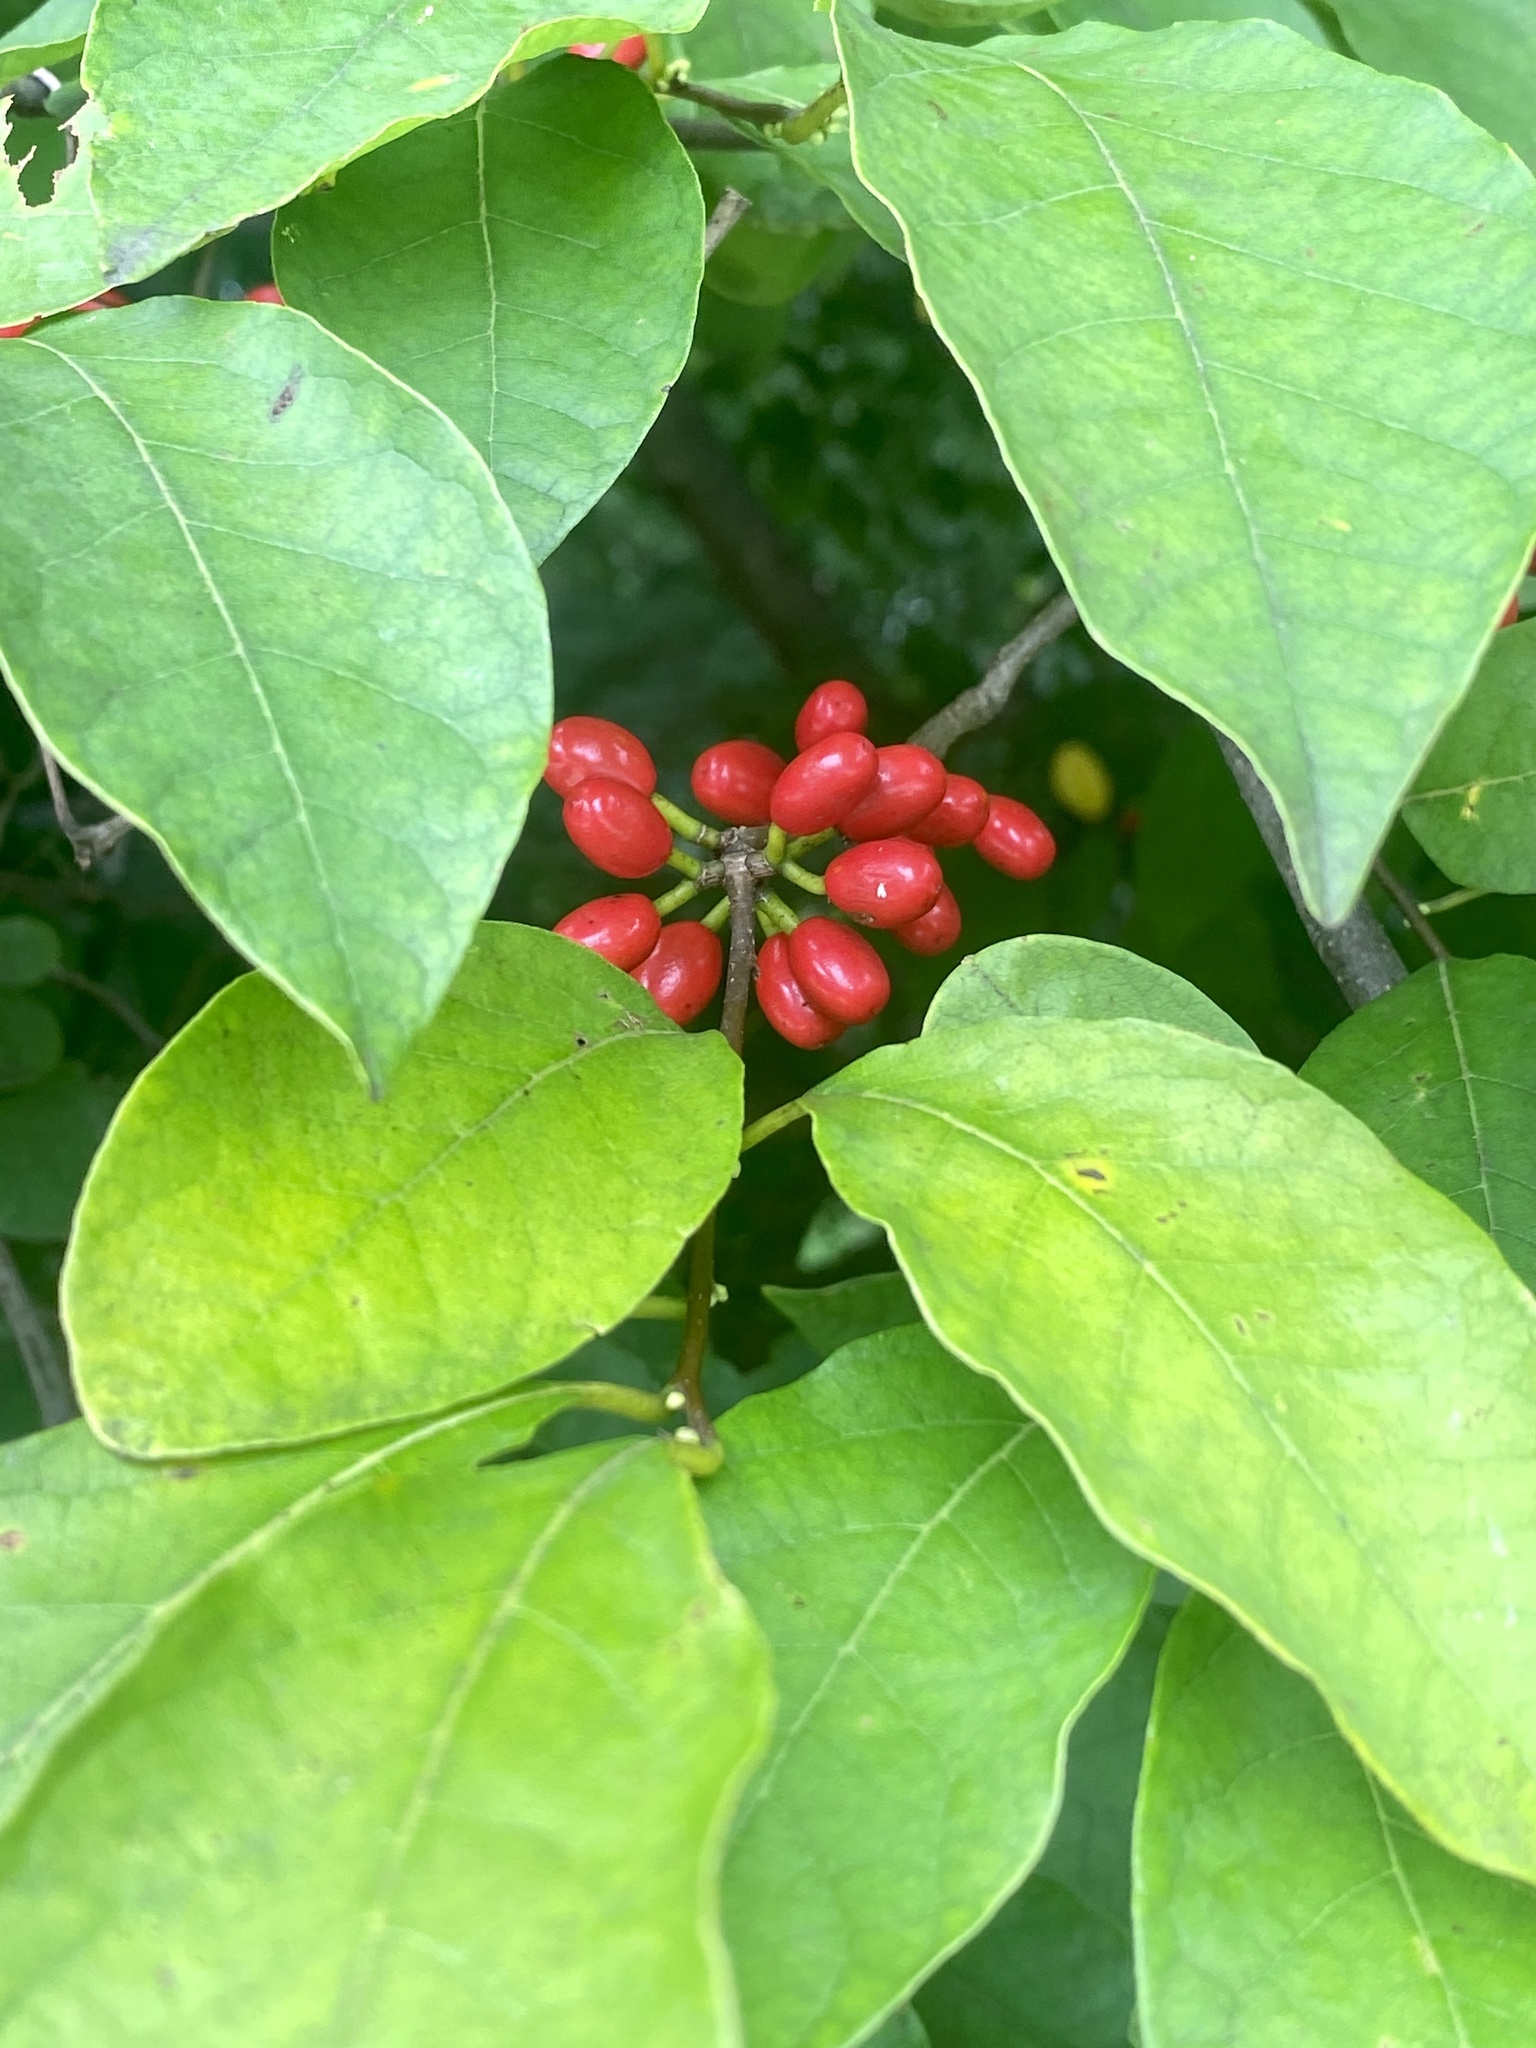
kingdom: Plantae
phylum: Tracheophyta
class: Magnoliopsida
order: Laurales
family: Lauraceae
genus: Lindera
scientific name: Lindera benzoin
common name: Spicebush
